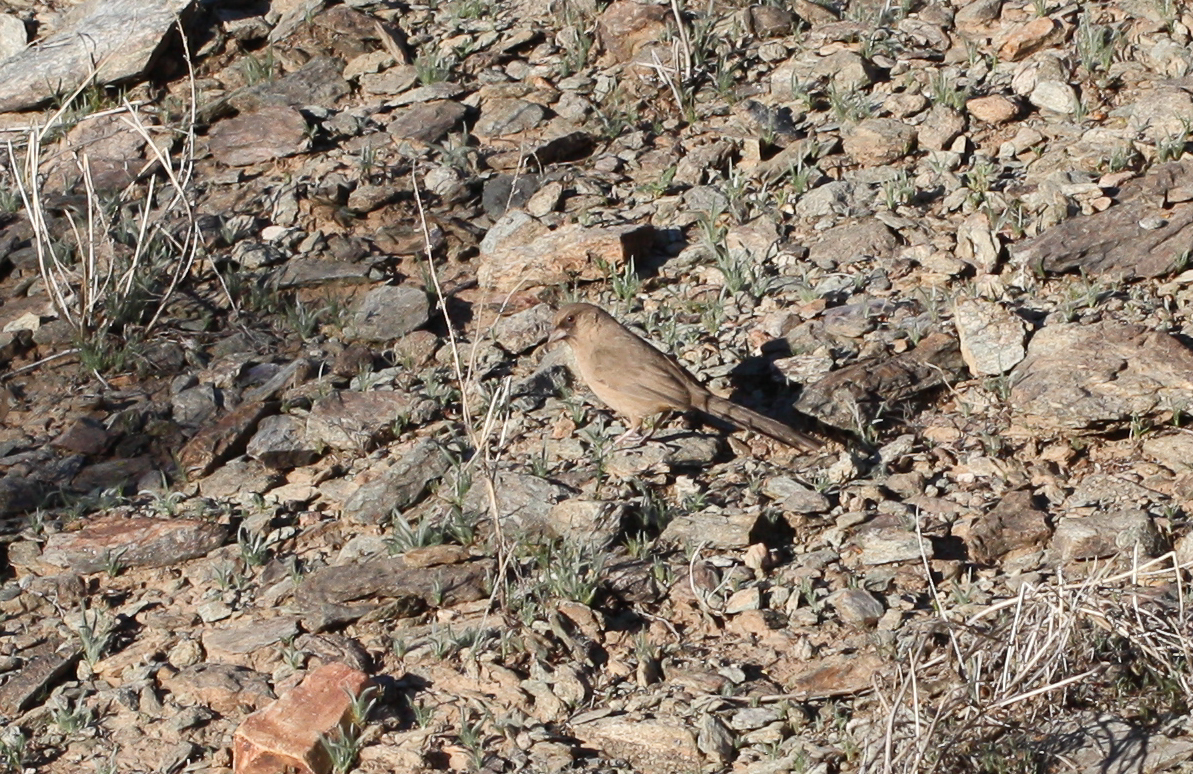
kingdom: Animalia
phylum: Chordata
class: Aves
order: Passeriformes
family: Passerellidae
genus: Melozone
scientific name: Melozone aberti
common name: Abert's towhee
